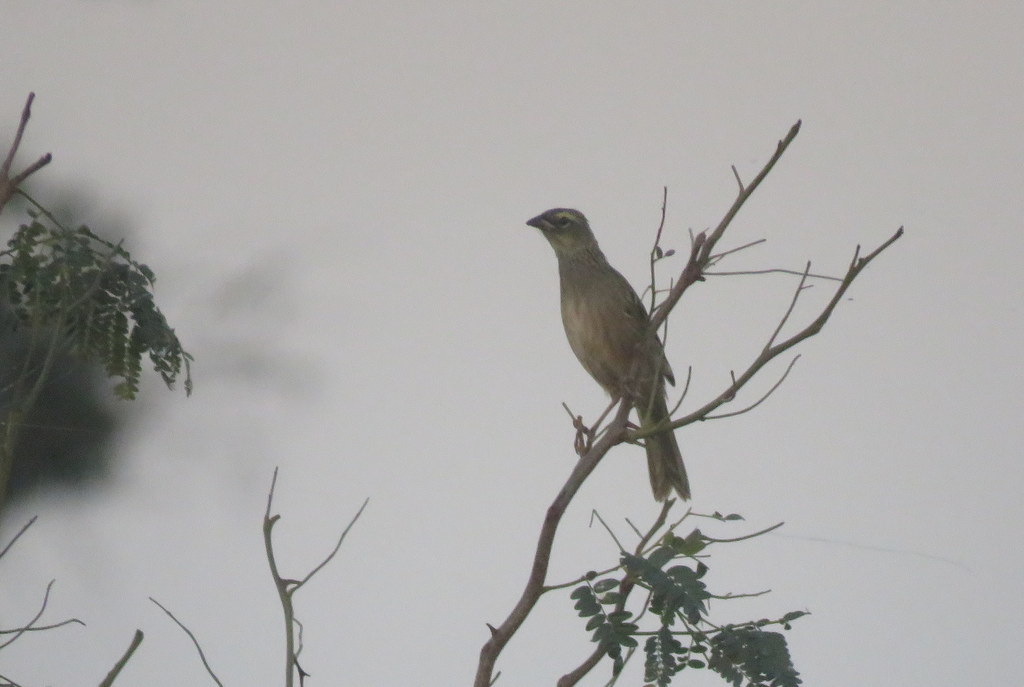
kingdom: Animalia
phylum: Chordata
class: Aves
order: Passeriformes
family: Thraupidae
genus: Embernagra
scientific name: Embernagra platensis
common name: Pampa finch
